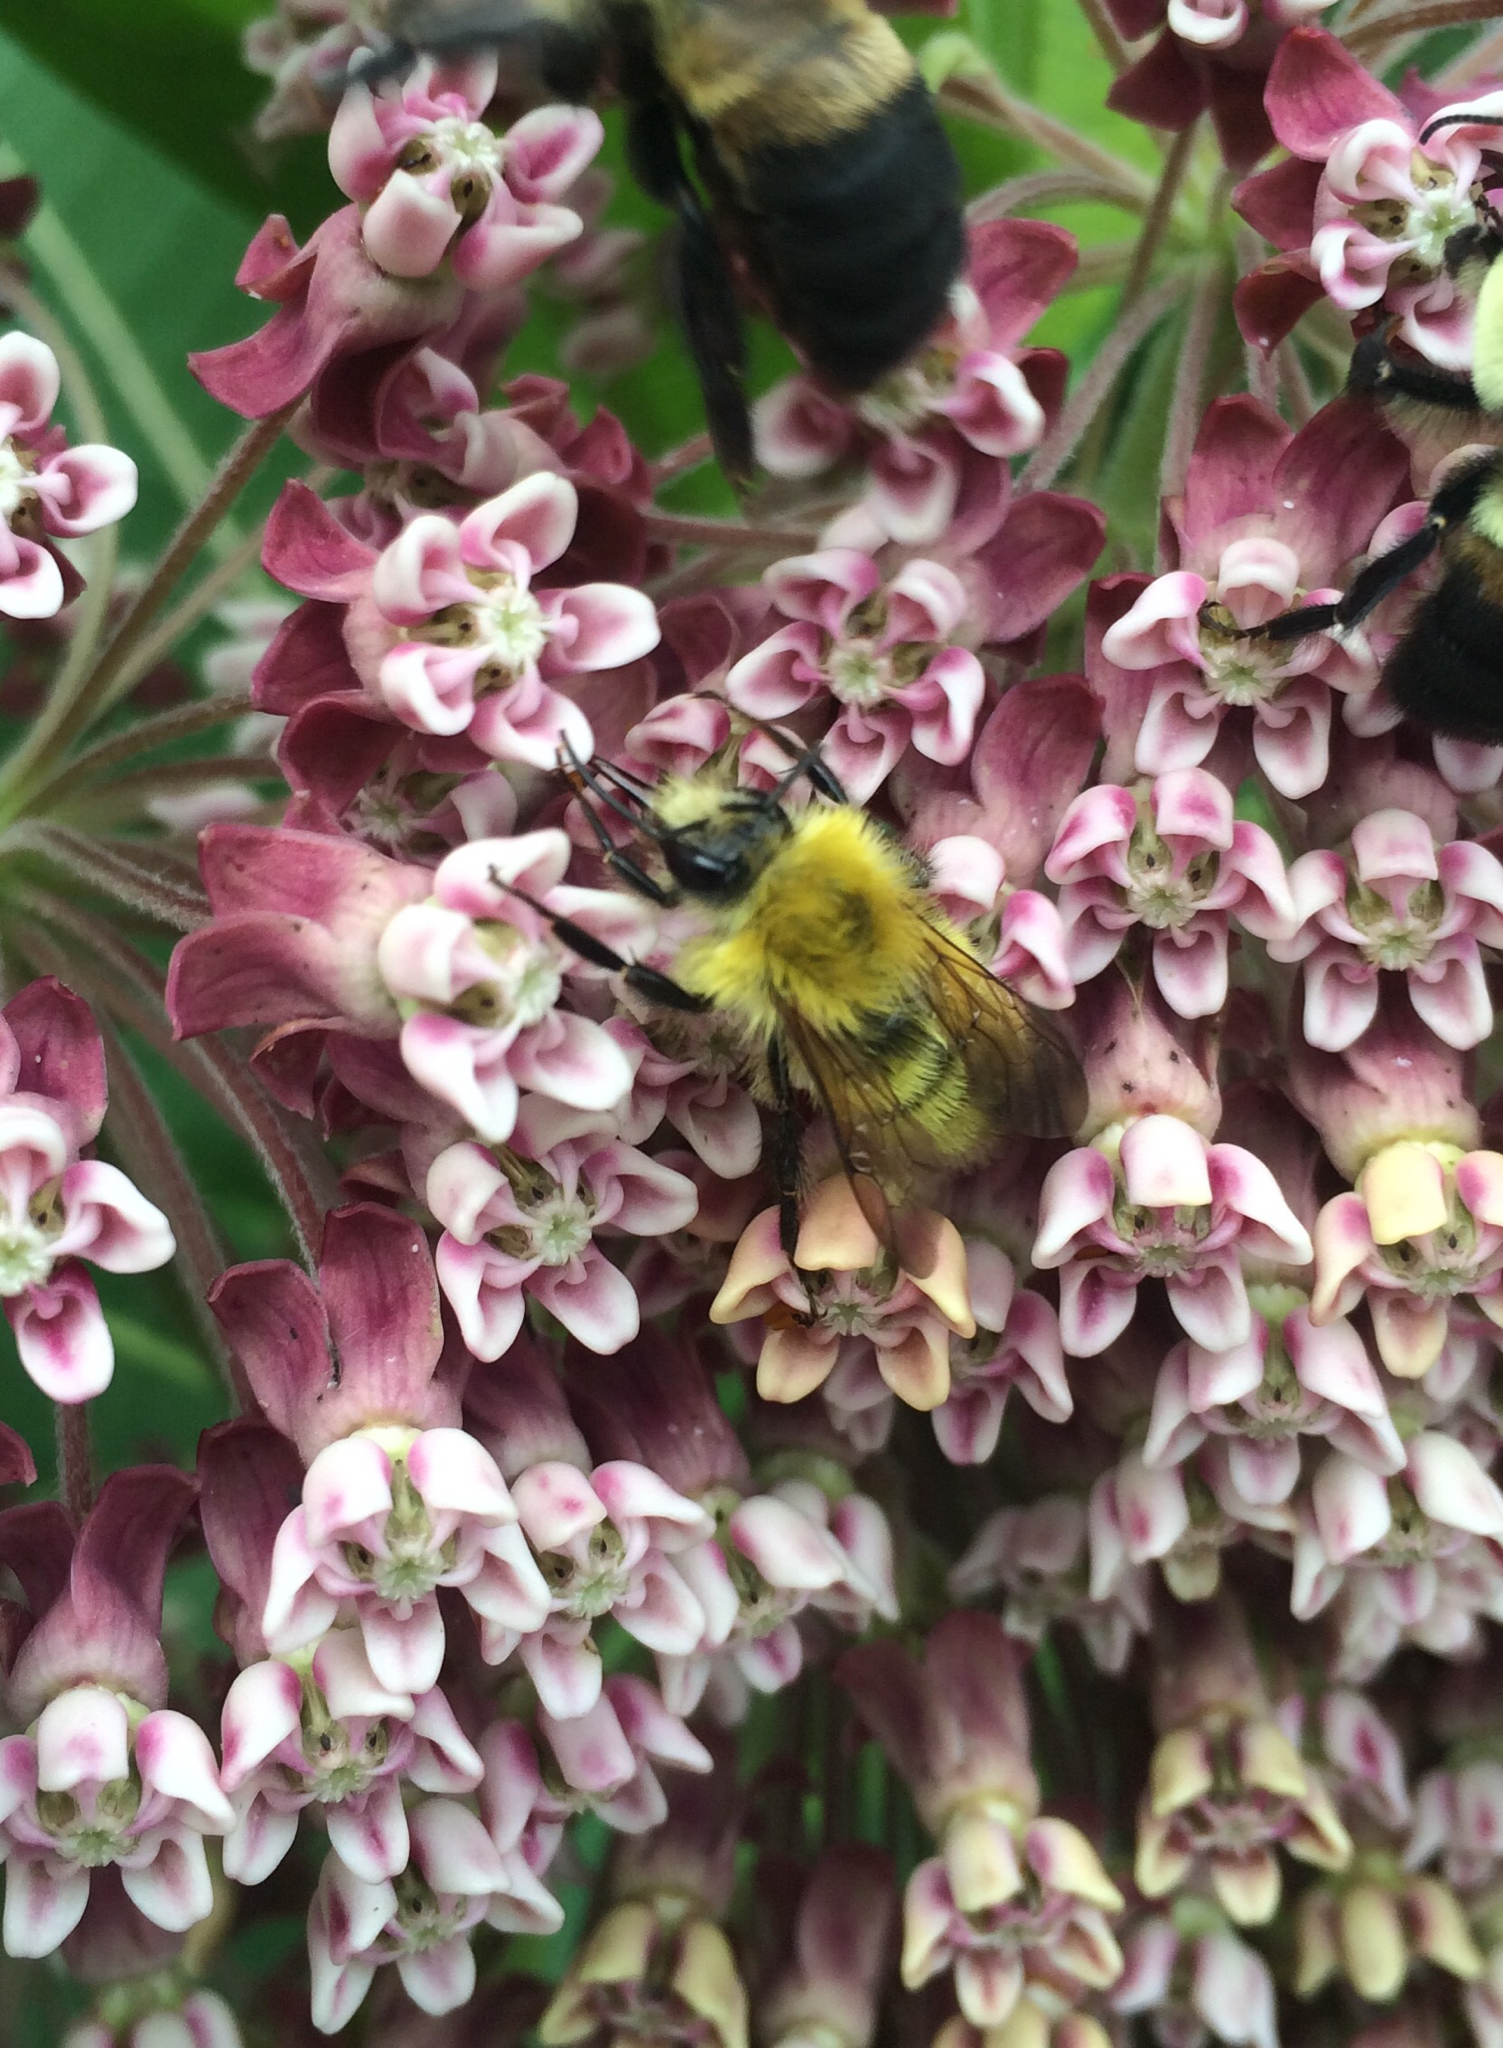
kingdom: Animalia
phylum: Arthropoda
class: Insecta
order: Hymenoptera
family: Apidae
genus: Bombus
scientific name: Bombus perplexus
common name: Confusing bumble bee
